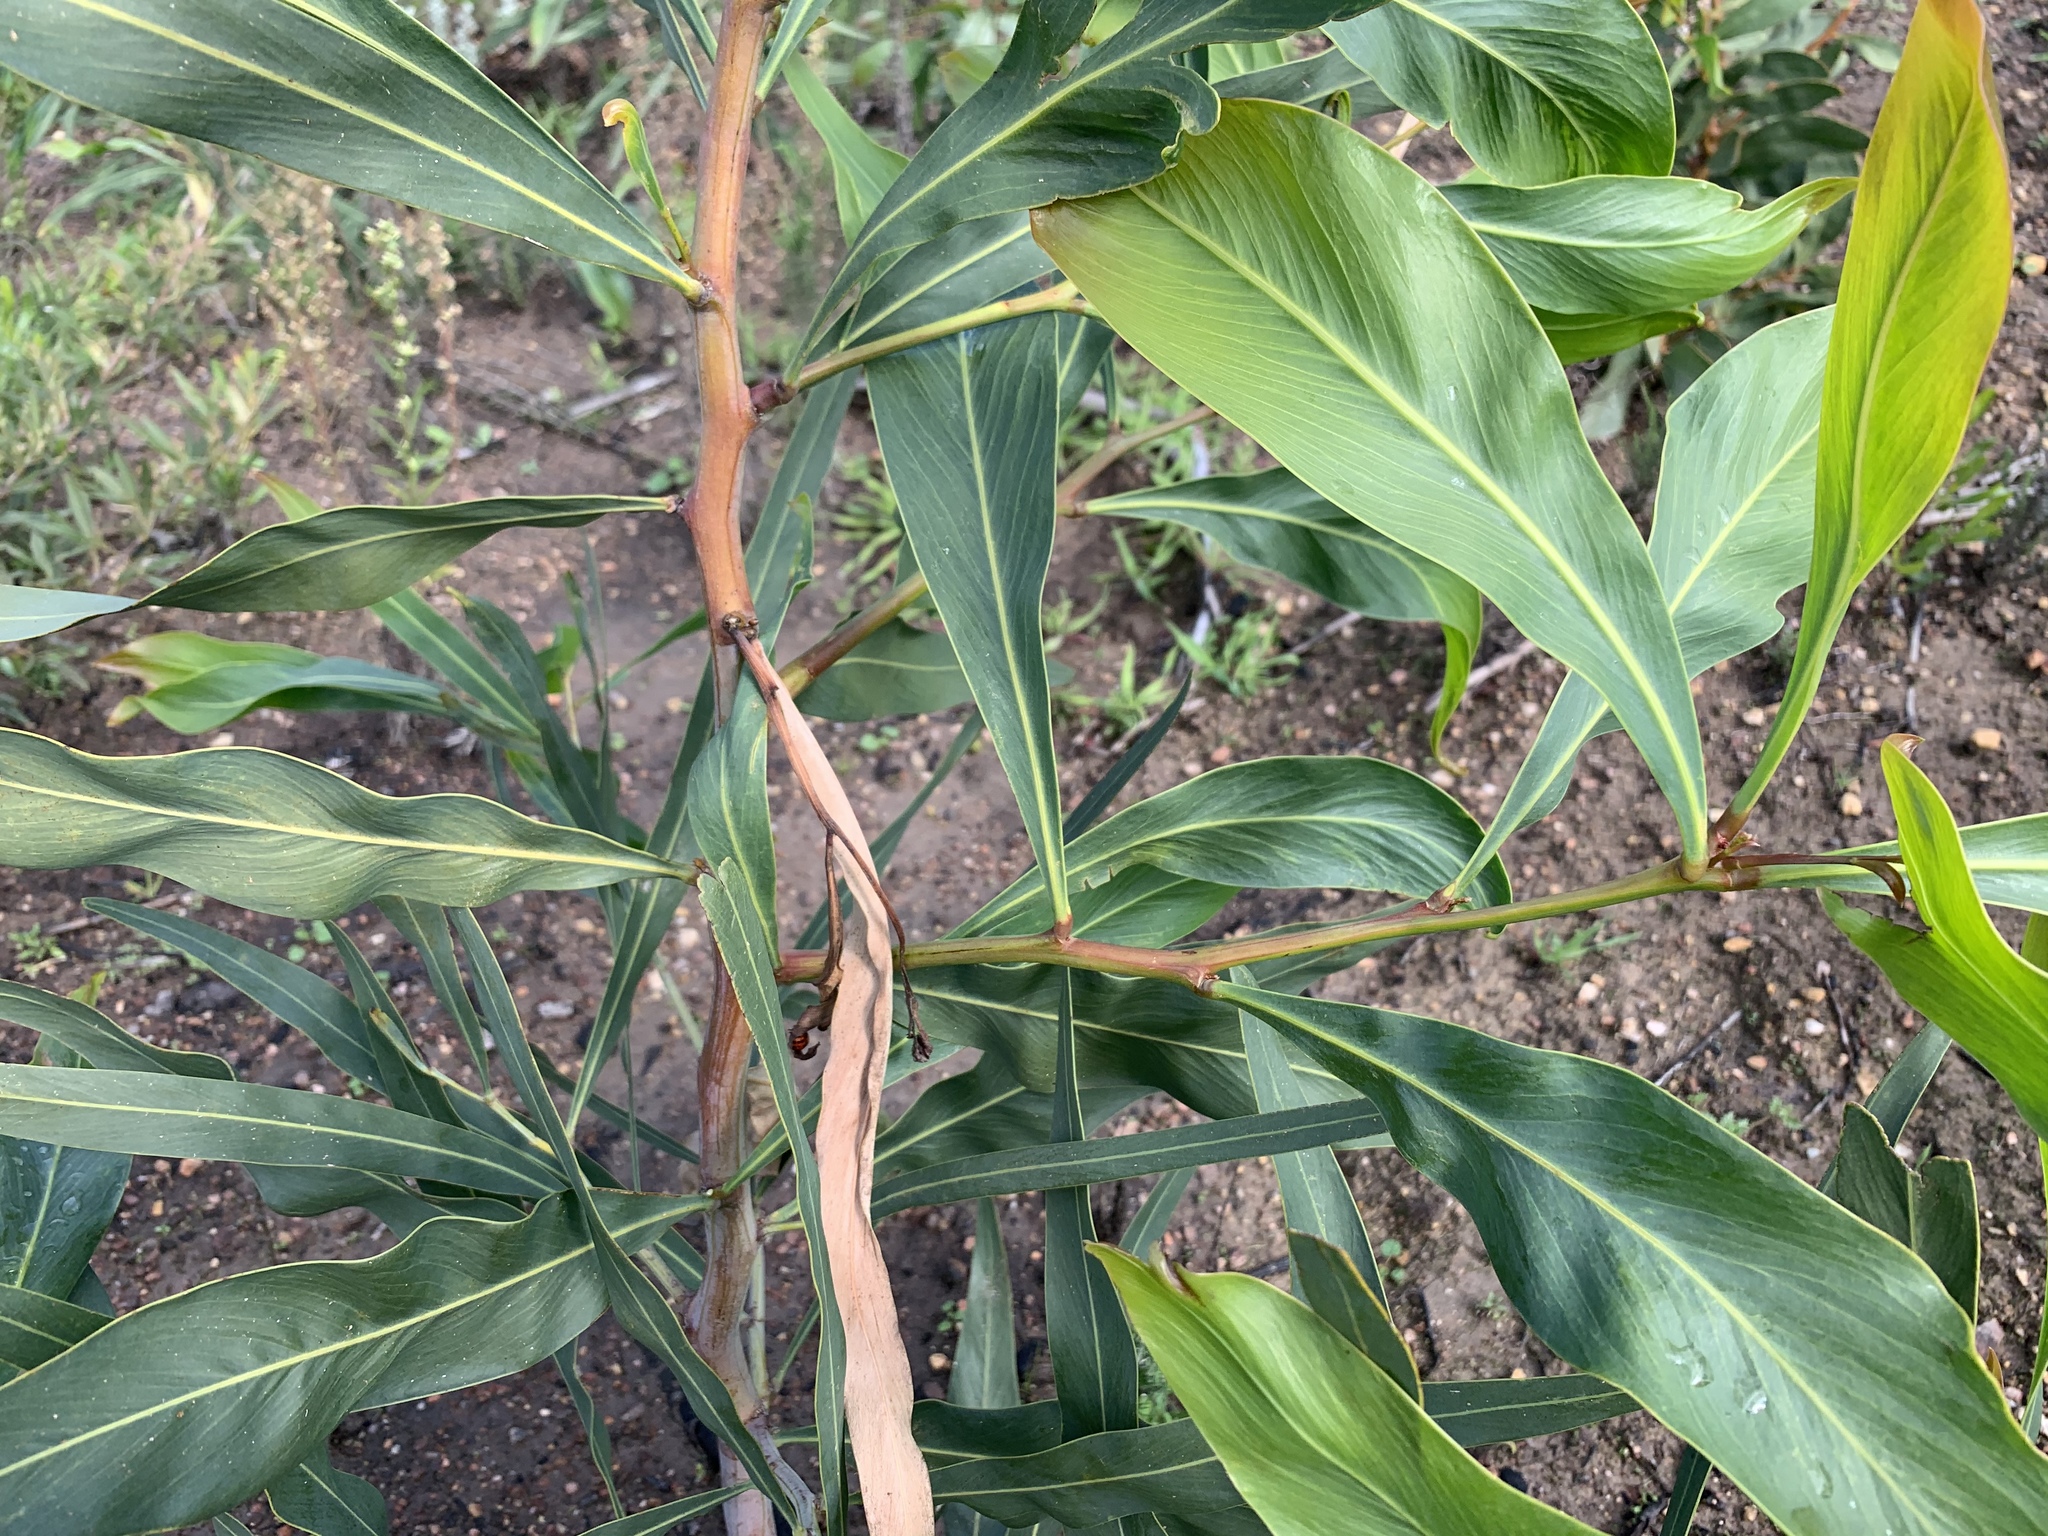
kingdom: Plantae
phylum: Tracheophyta
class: Magnoliopsida
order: Fabales
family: Fabaceae
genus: Acacia
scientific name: Acacia saligna
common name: Orange wattle
